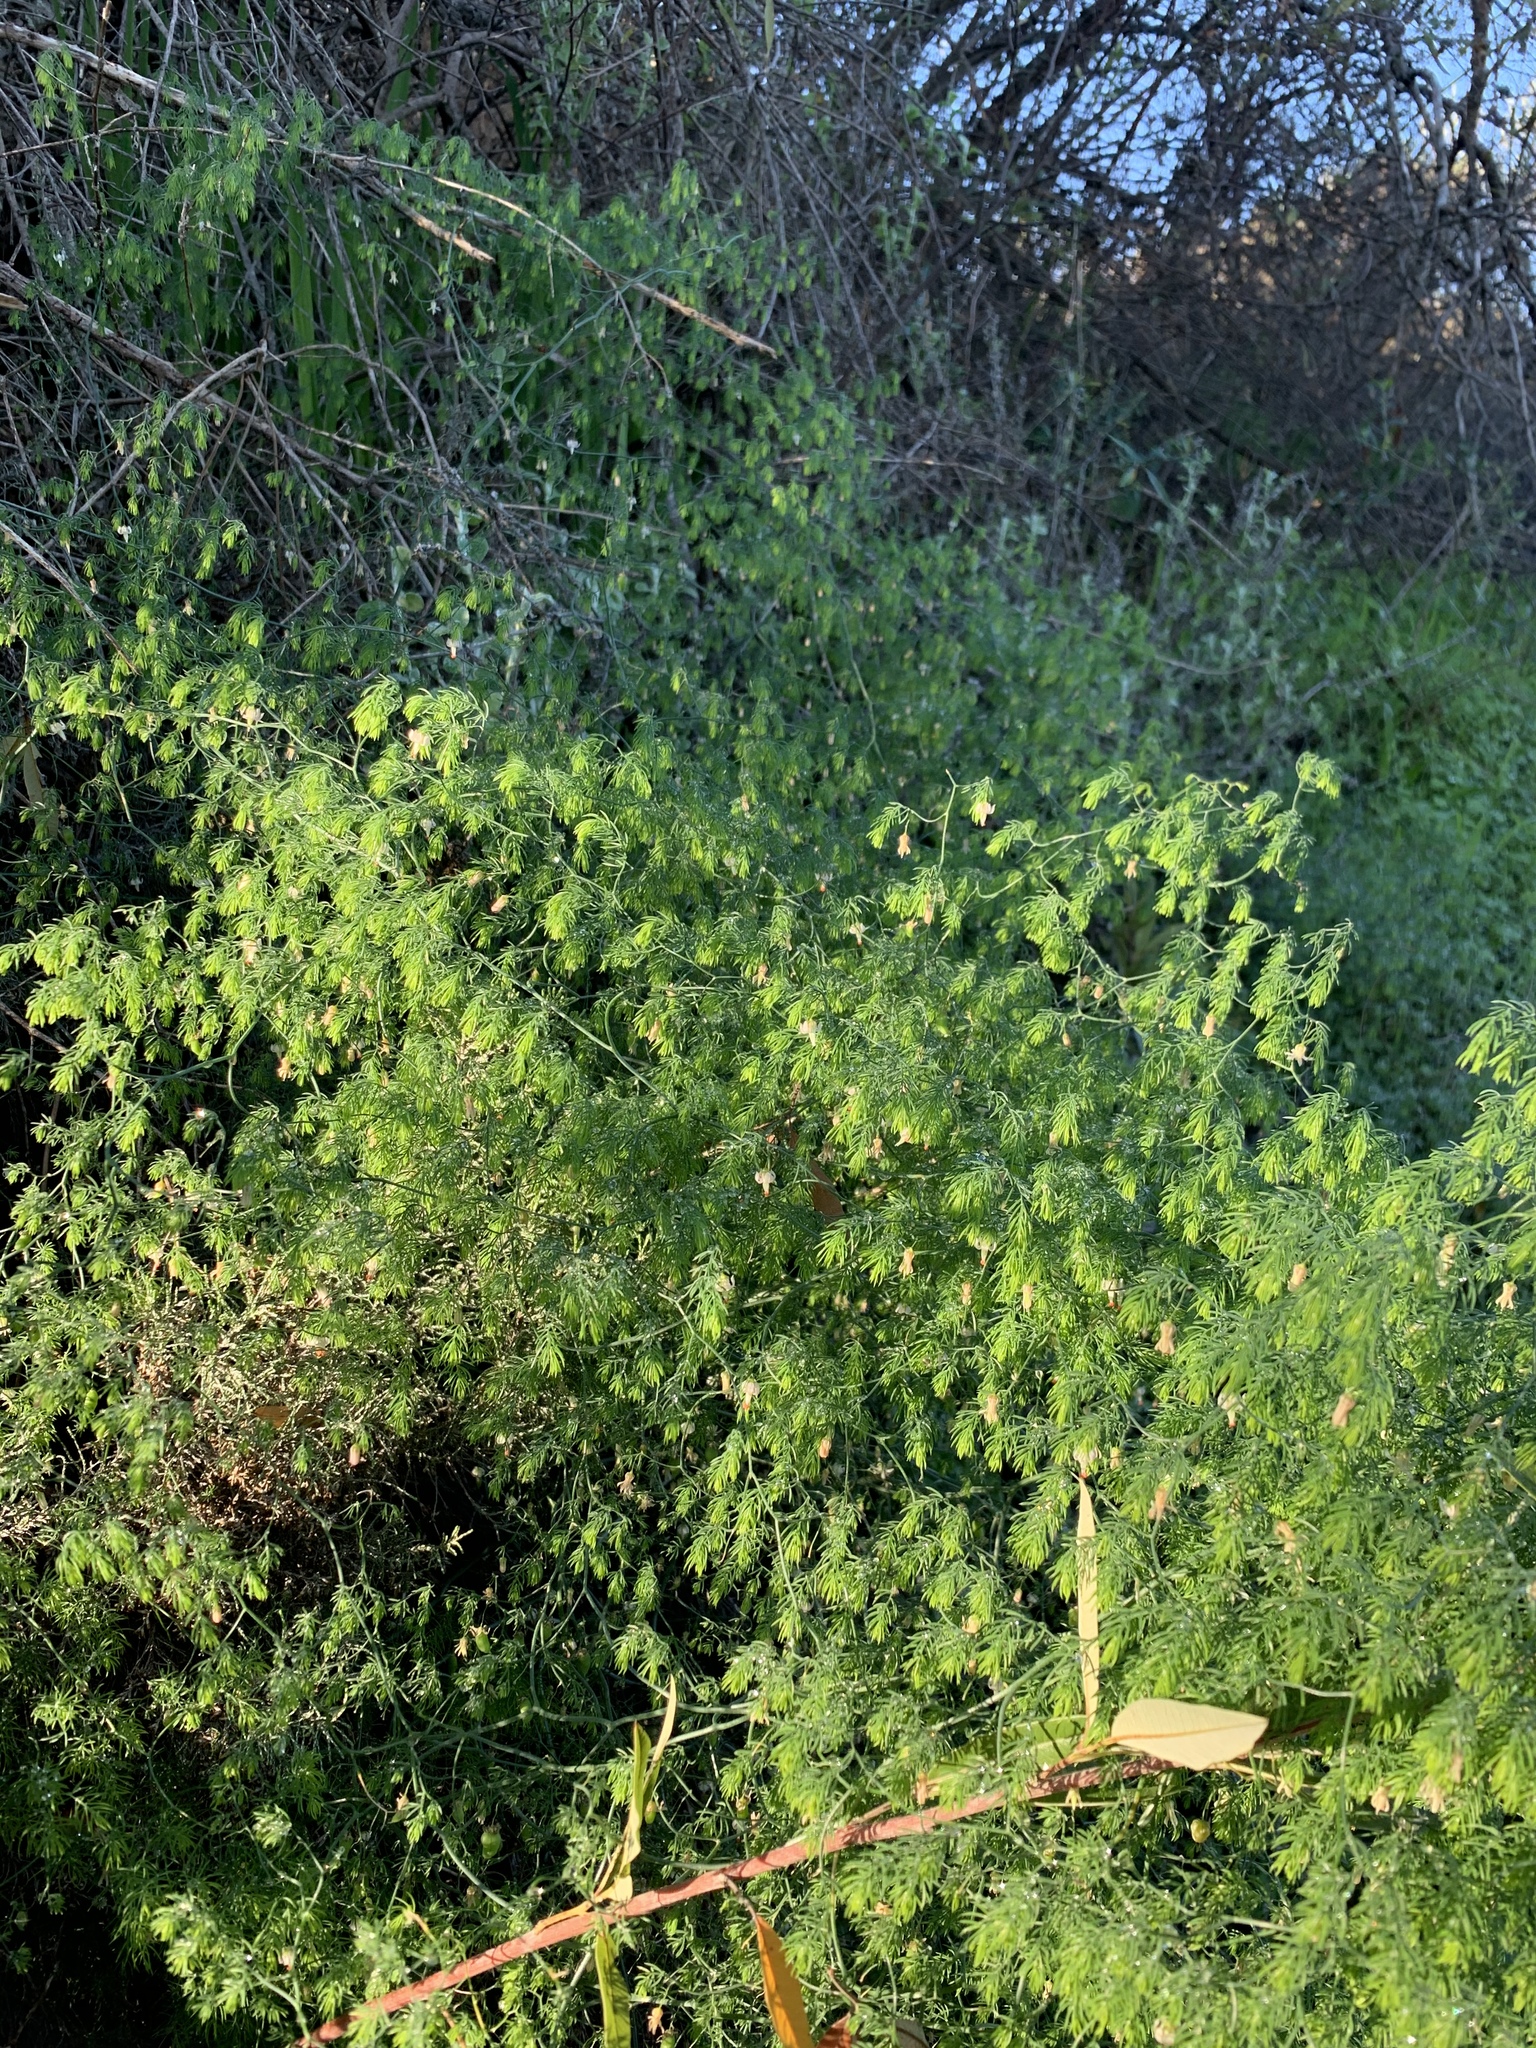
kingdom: Plantae
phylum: Tracheophyta
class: Liliopsida
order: Asparagales
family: Asparagaceae
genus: Asparagus
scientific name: Asparagus declinatus
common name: Bridal-creeper
